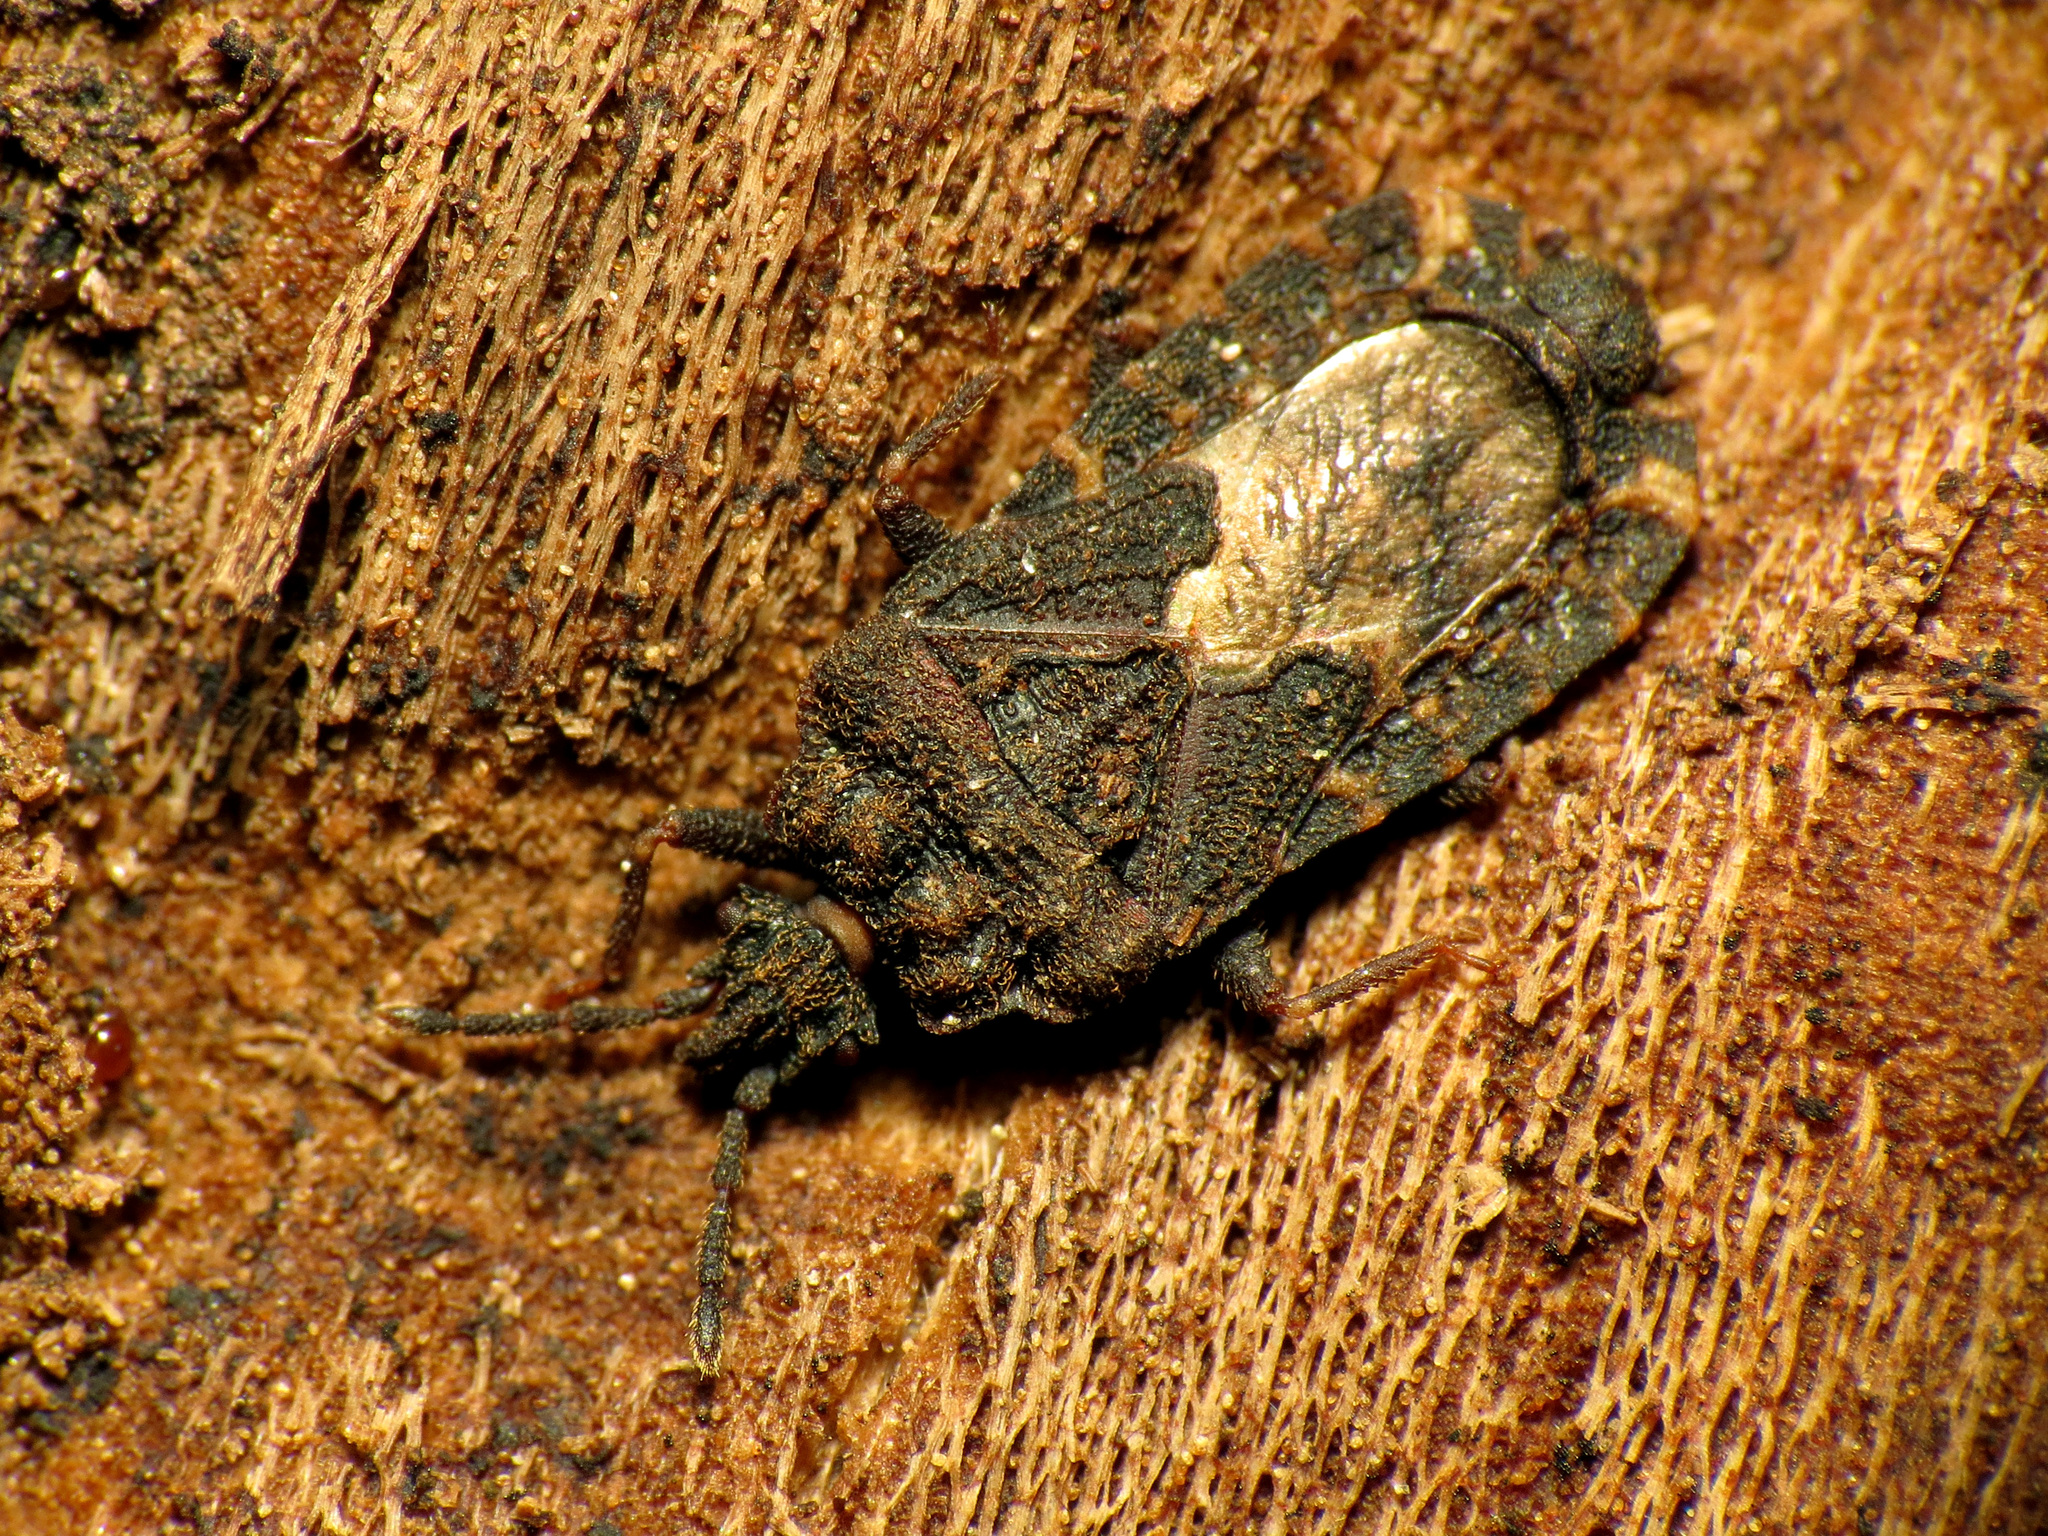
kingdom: Animalia
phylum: Arthropoda
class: Insecta
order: Hemiptera
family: Aradidae
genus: Mezira
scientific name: Mezira
